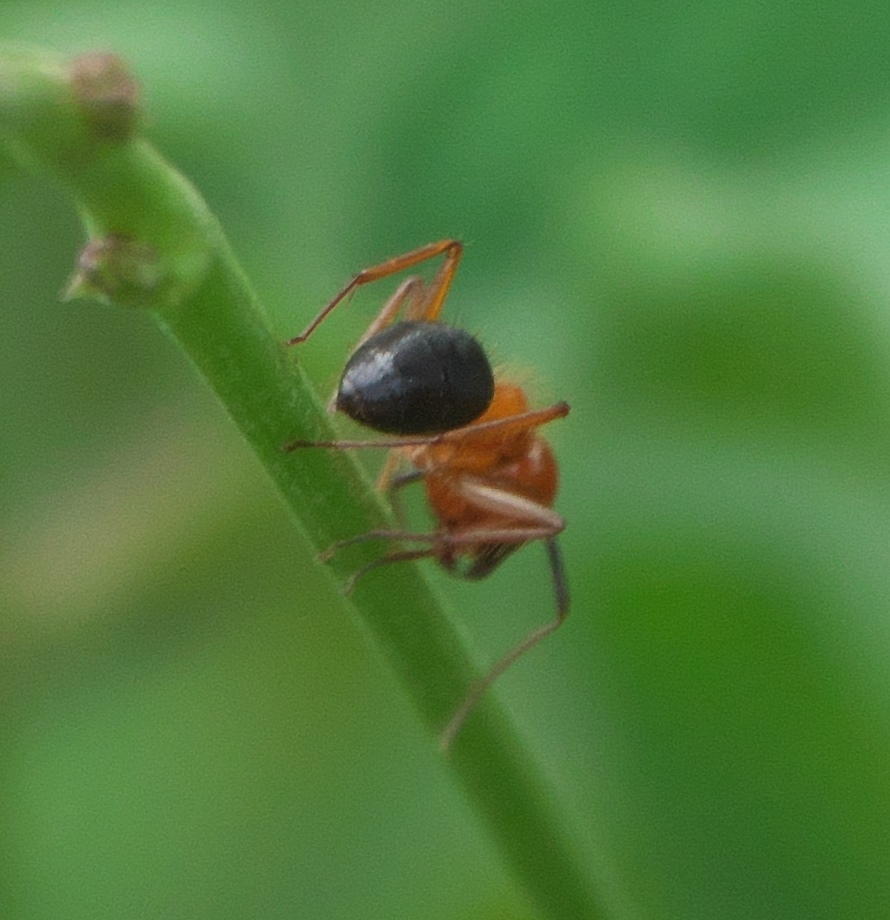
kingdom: Animalia
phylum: Arthropoda
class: Insecta
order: Hymenoptera
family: Formicidae
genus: Camponotus
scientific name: Camponotus floridanus
